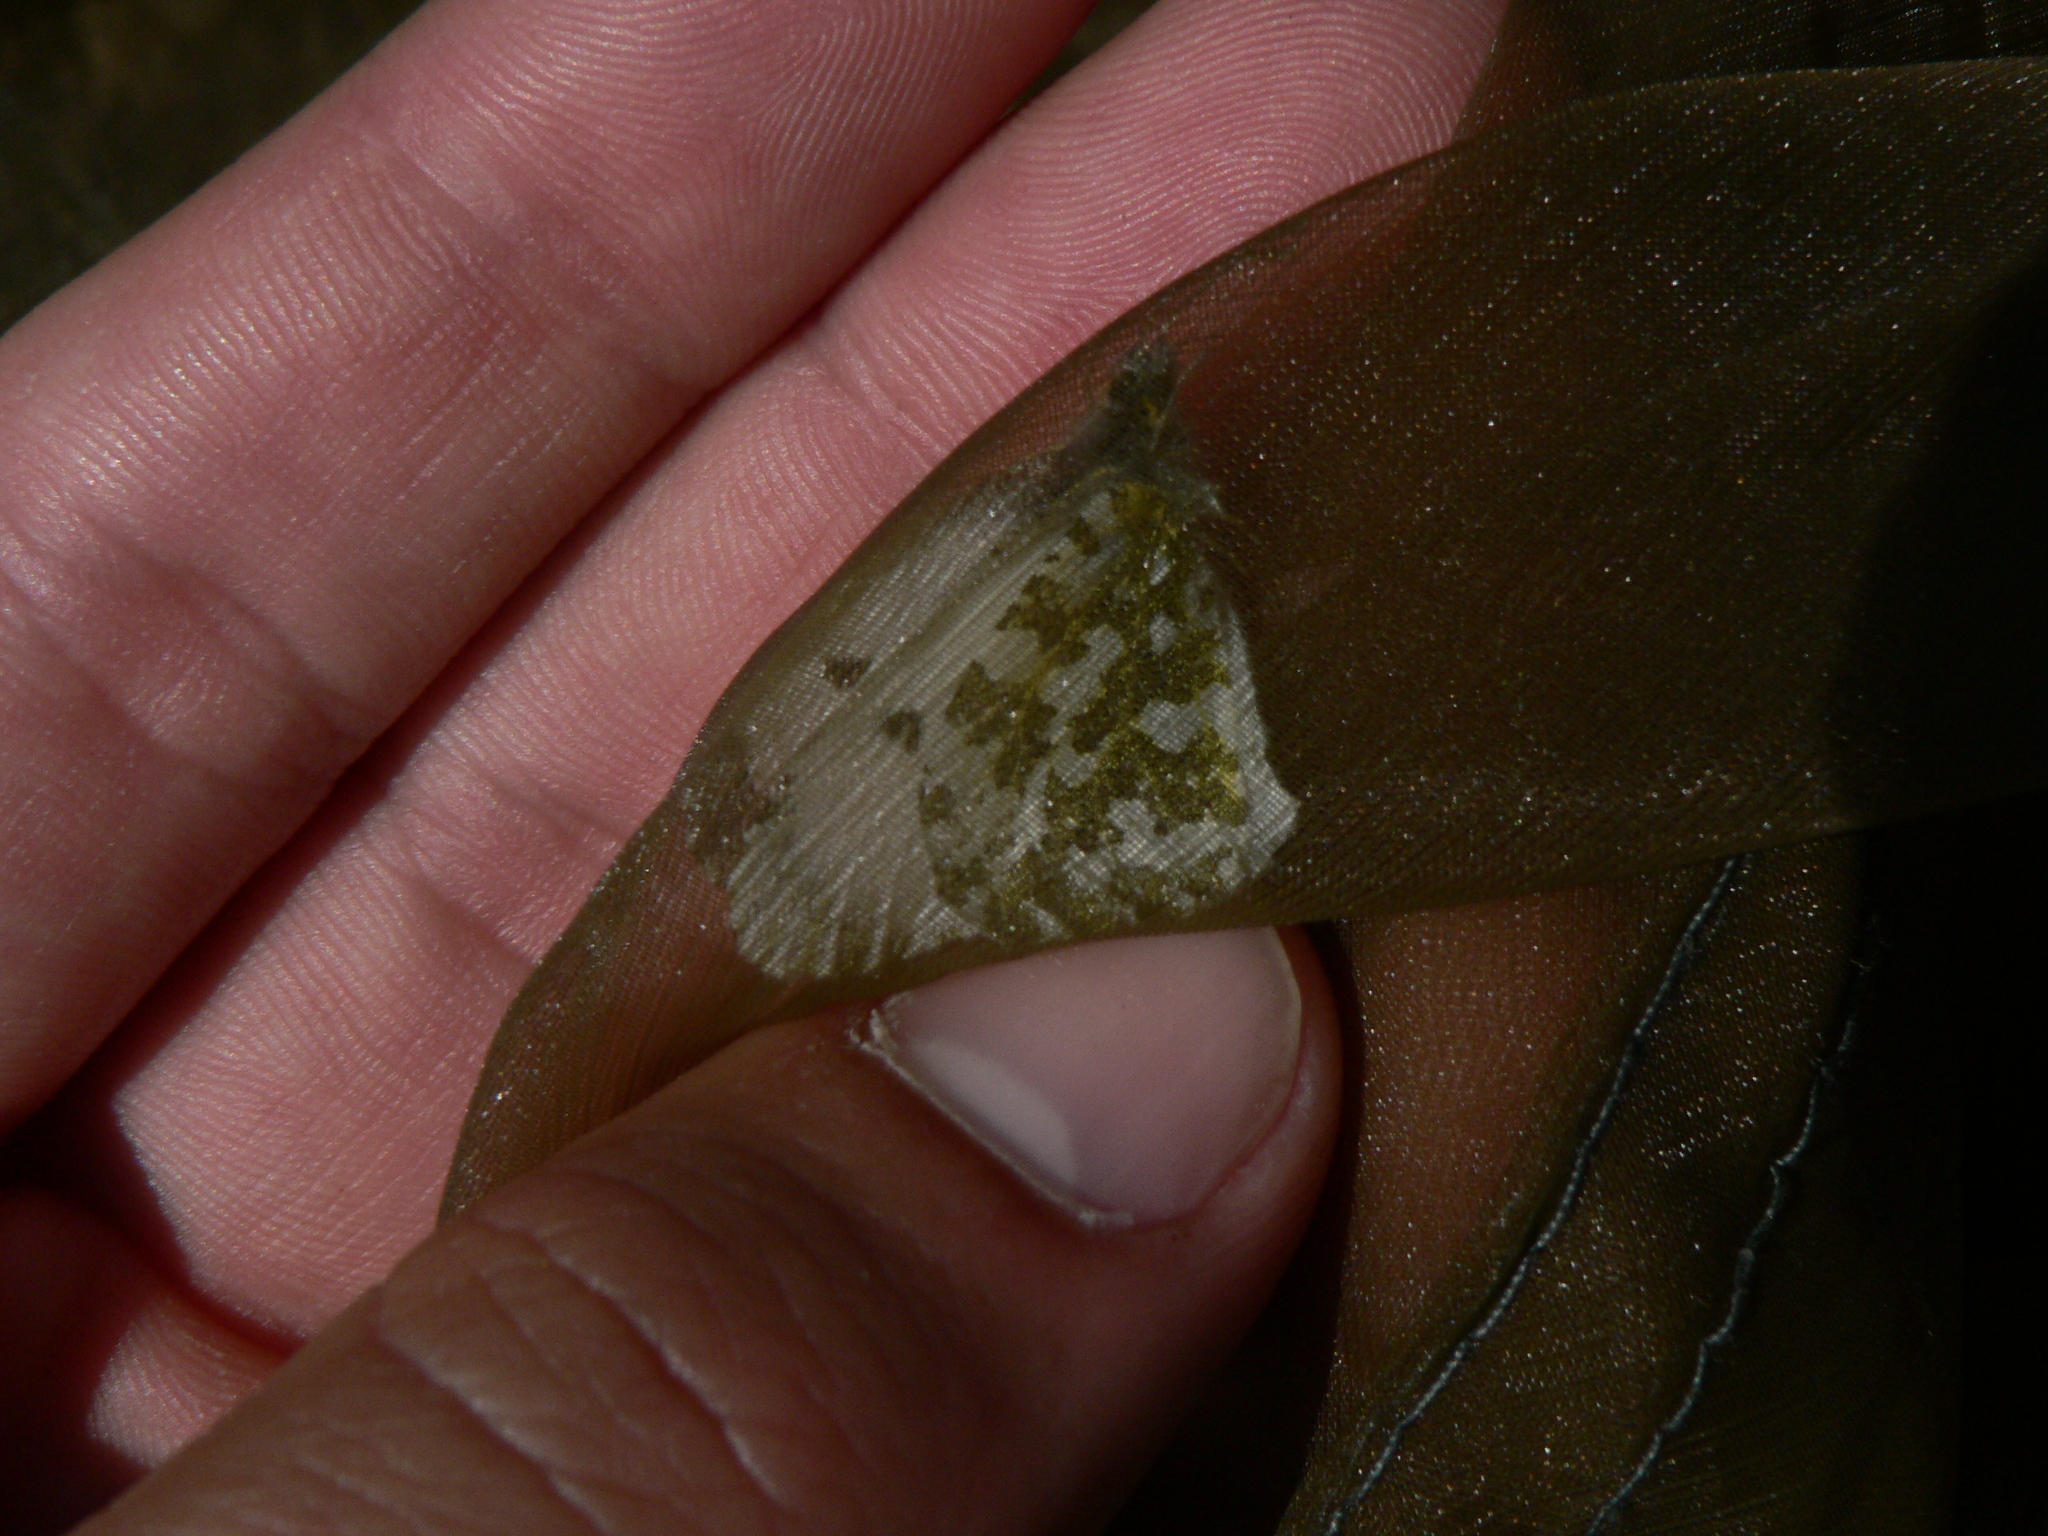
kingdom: Animalia
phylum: Arthropoda
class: Insecta
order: Lepidoptera
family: Pieridae
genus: Anthocharis
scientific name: Anthocharis cardamines
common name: Orange-tip
